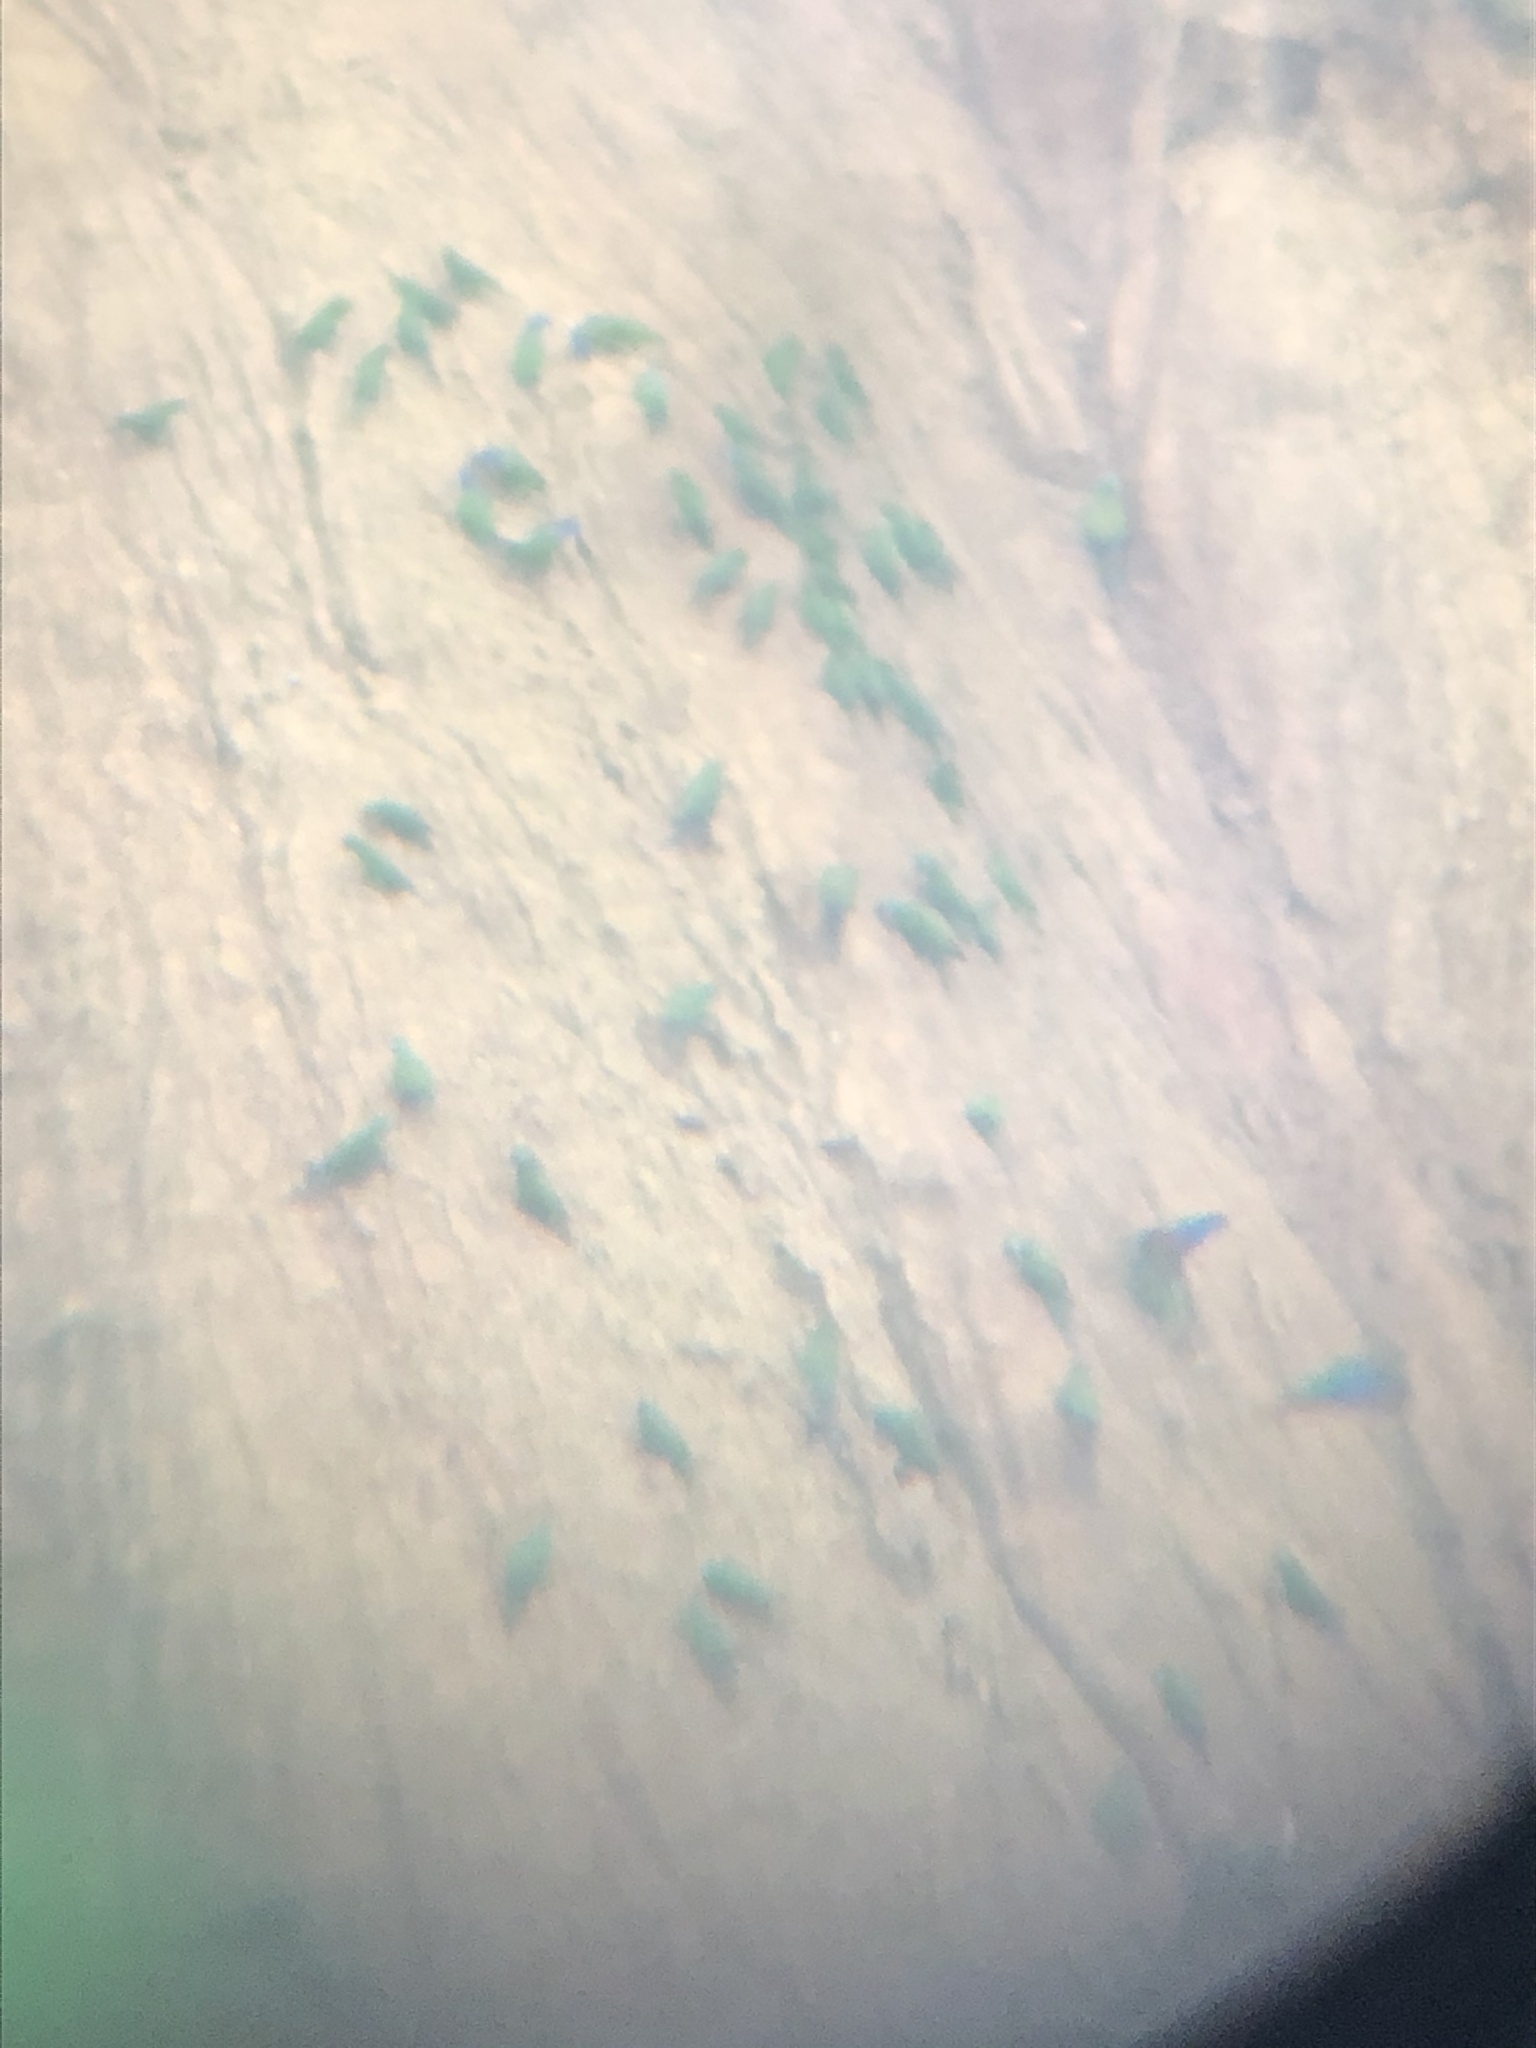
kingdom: Animalia
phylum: Chordata
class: Aves
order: Psittaciformes
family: Psittacidae
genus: Pionus
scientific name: Pionus menstruus
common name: Blue-headed parrot
